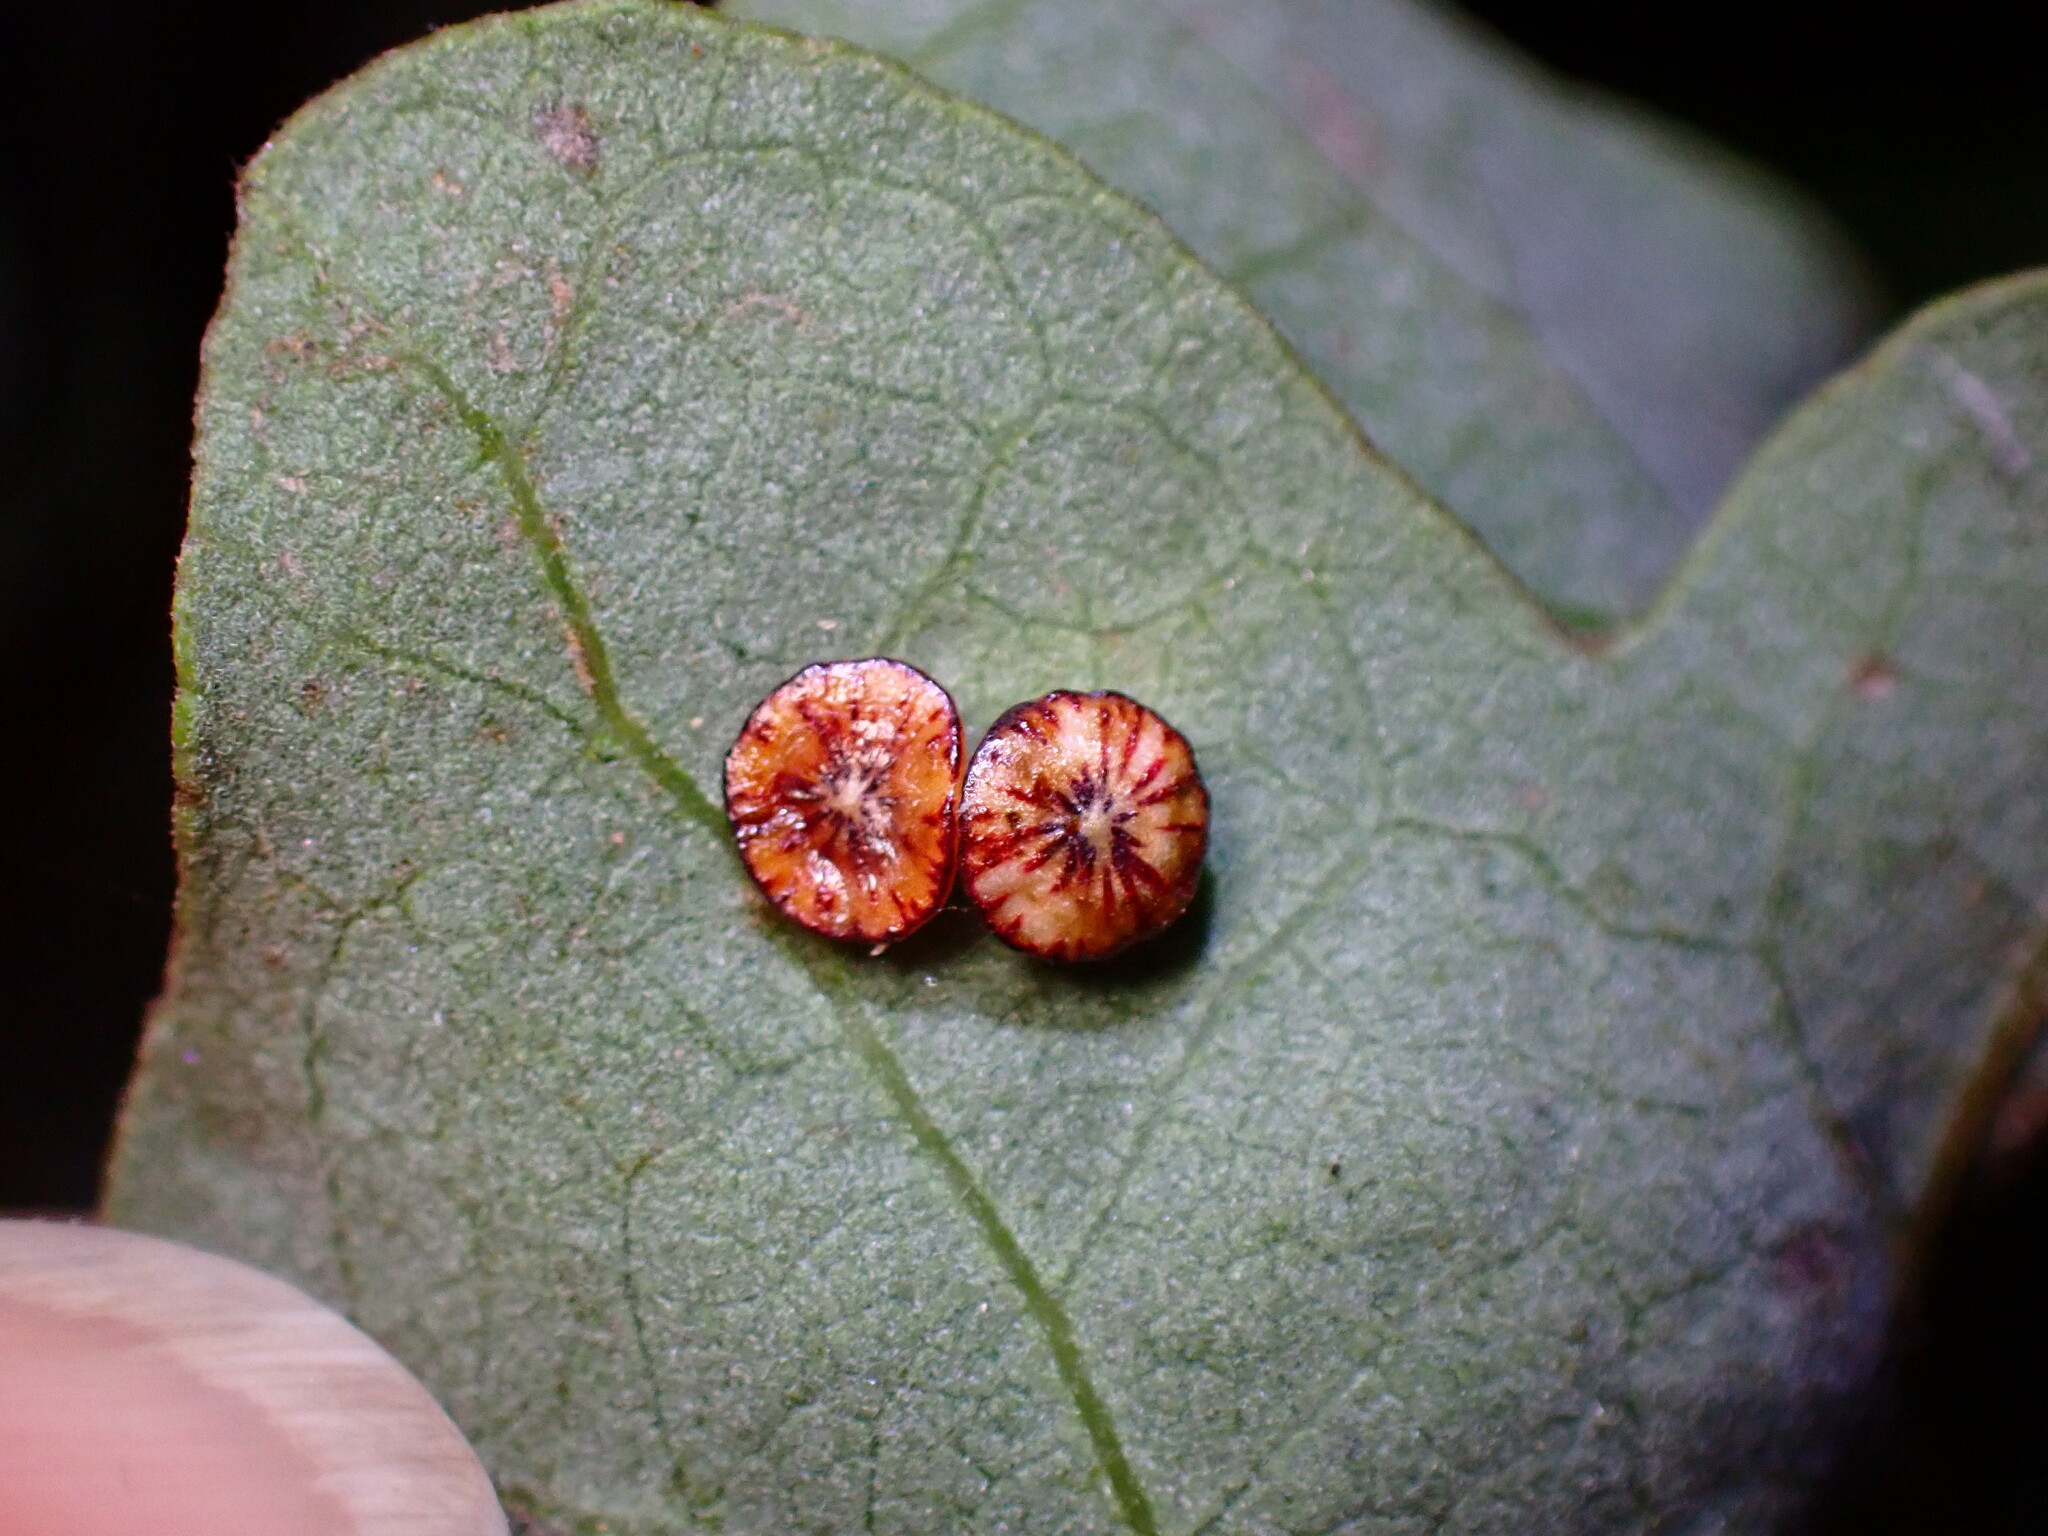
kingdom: Animalia
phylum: Arthropoda
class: Insecta
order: Hymenoptera
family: Cynipidae
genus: Andricus
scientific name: Andricus
